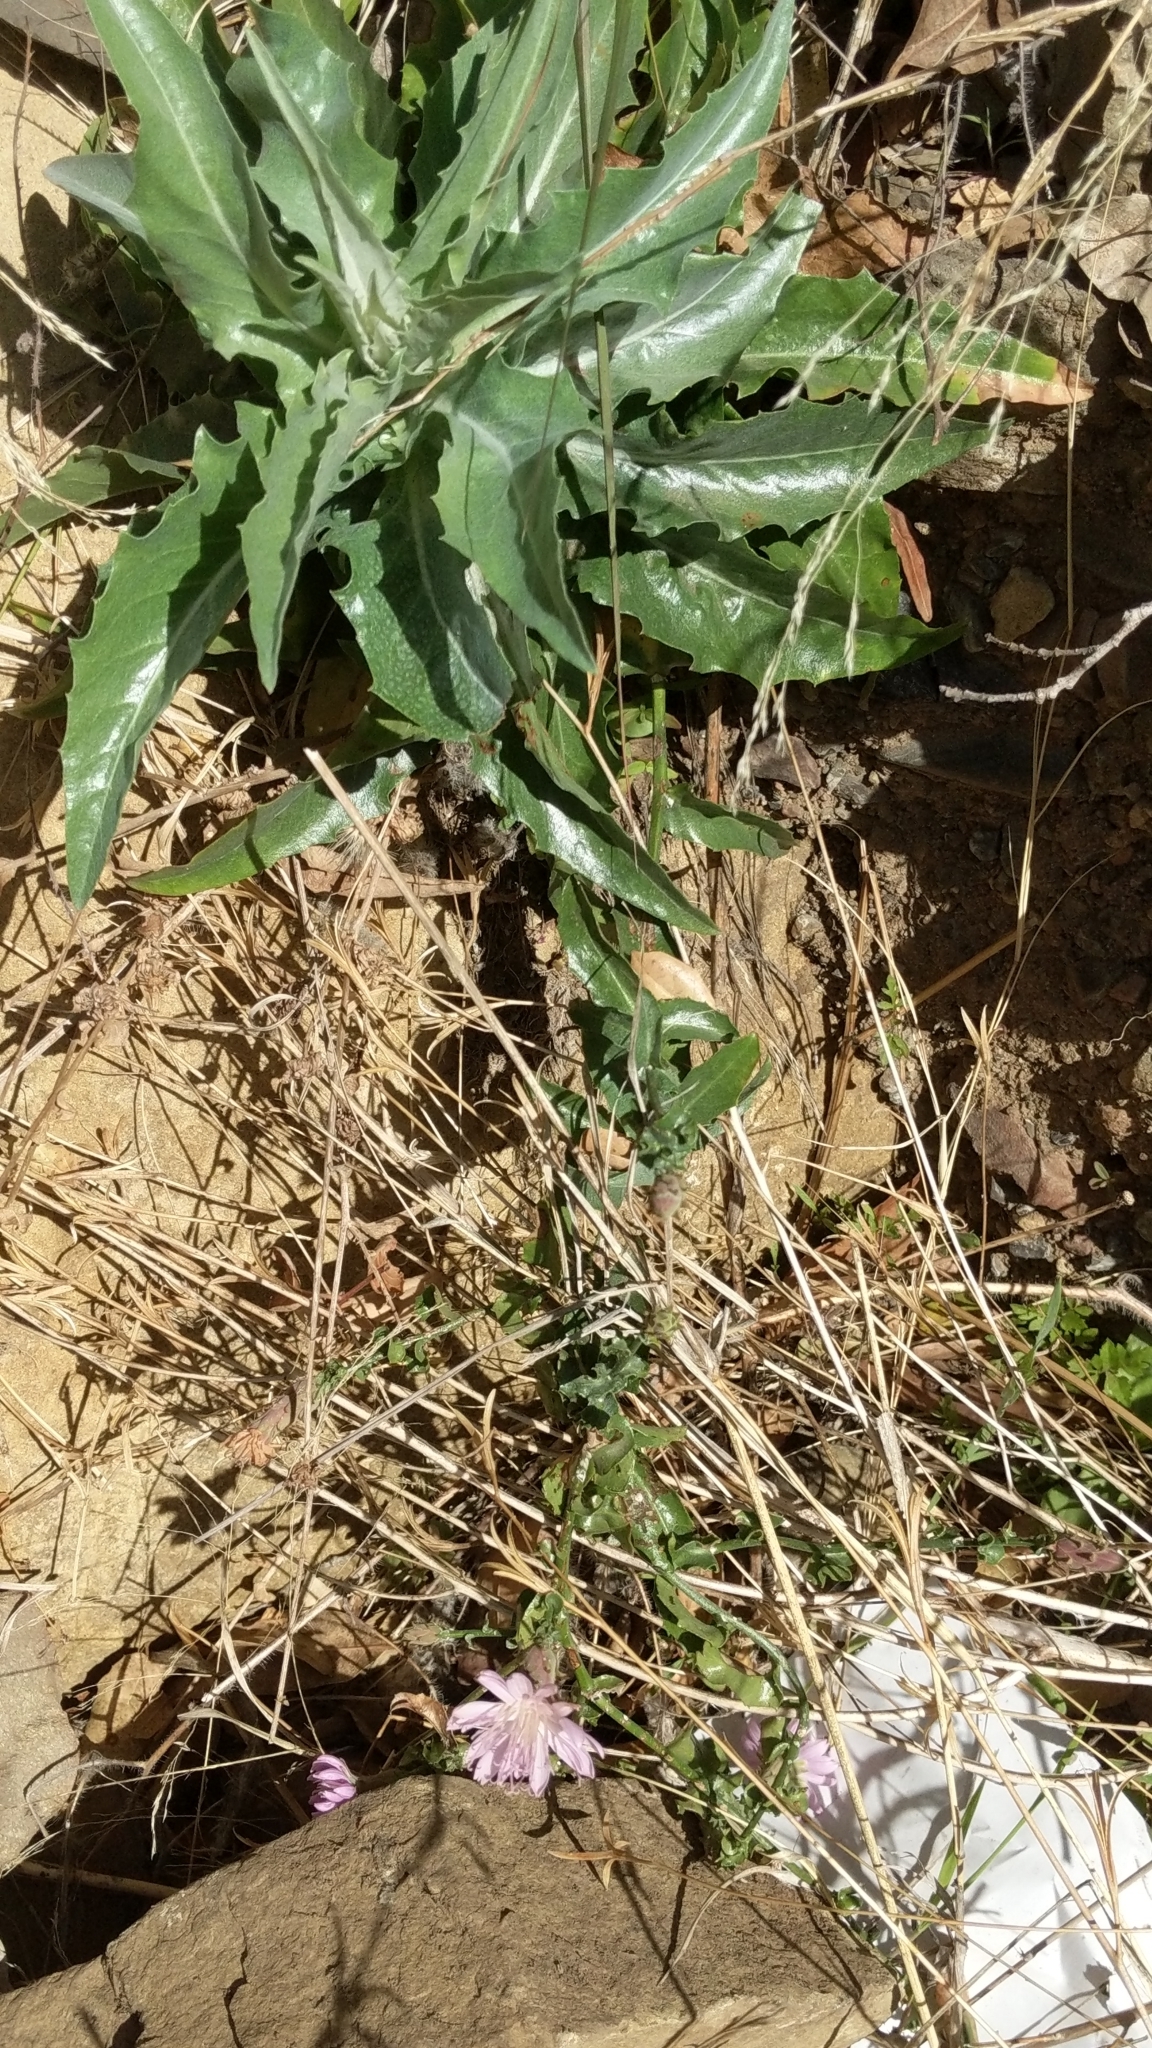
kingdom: Plantae
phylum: Tracheophyta
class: Magnoliopsida
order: Asterales
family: Asteraceae
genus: Stephanomeria
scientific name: Stephanomeria cichoriacea
